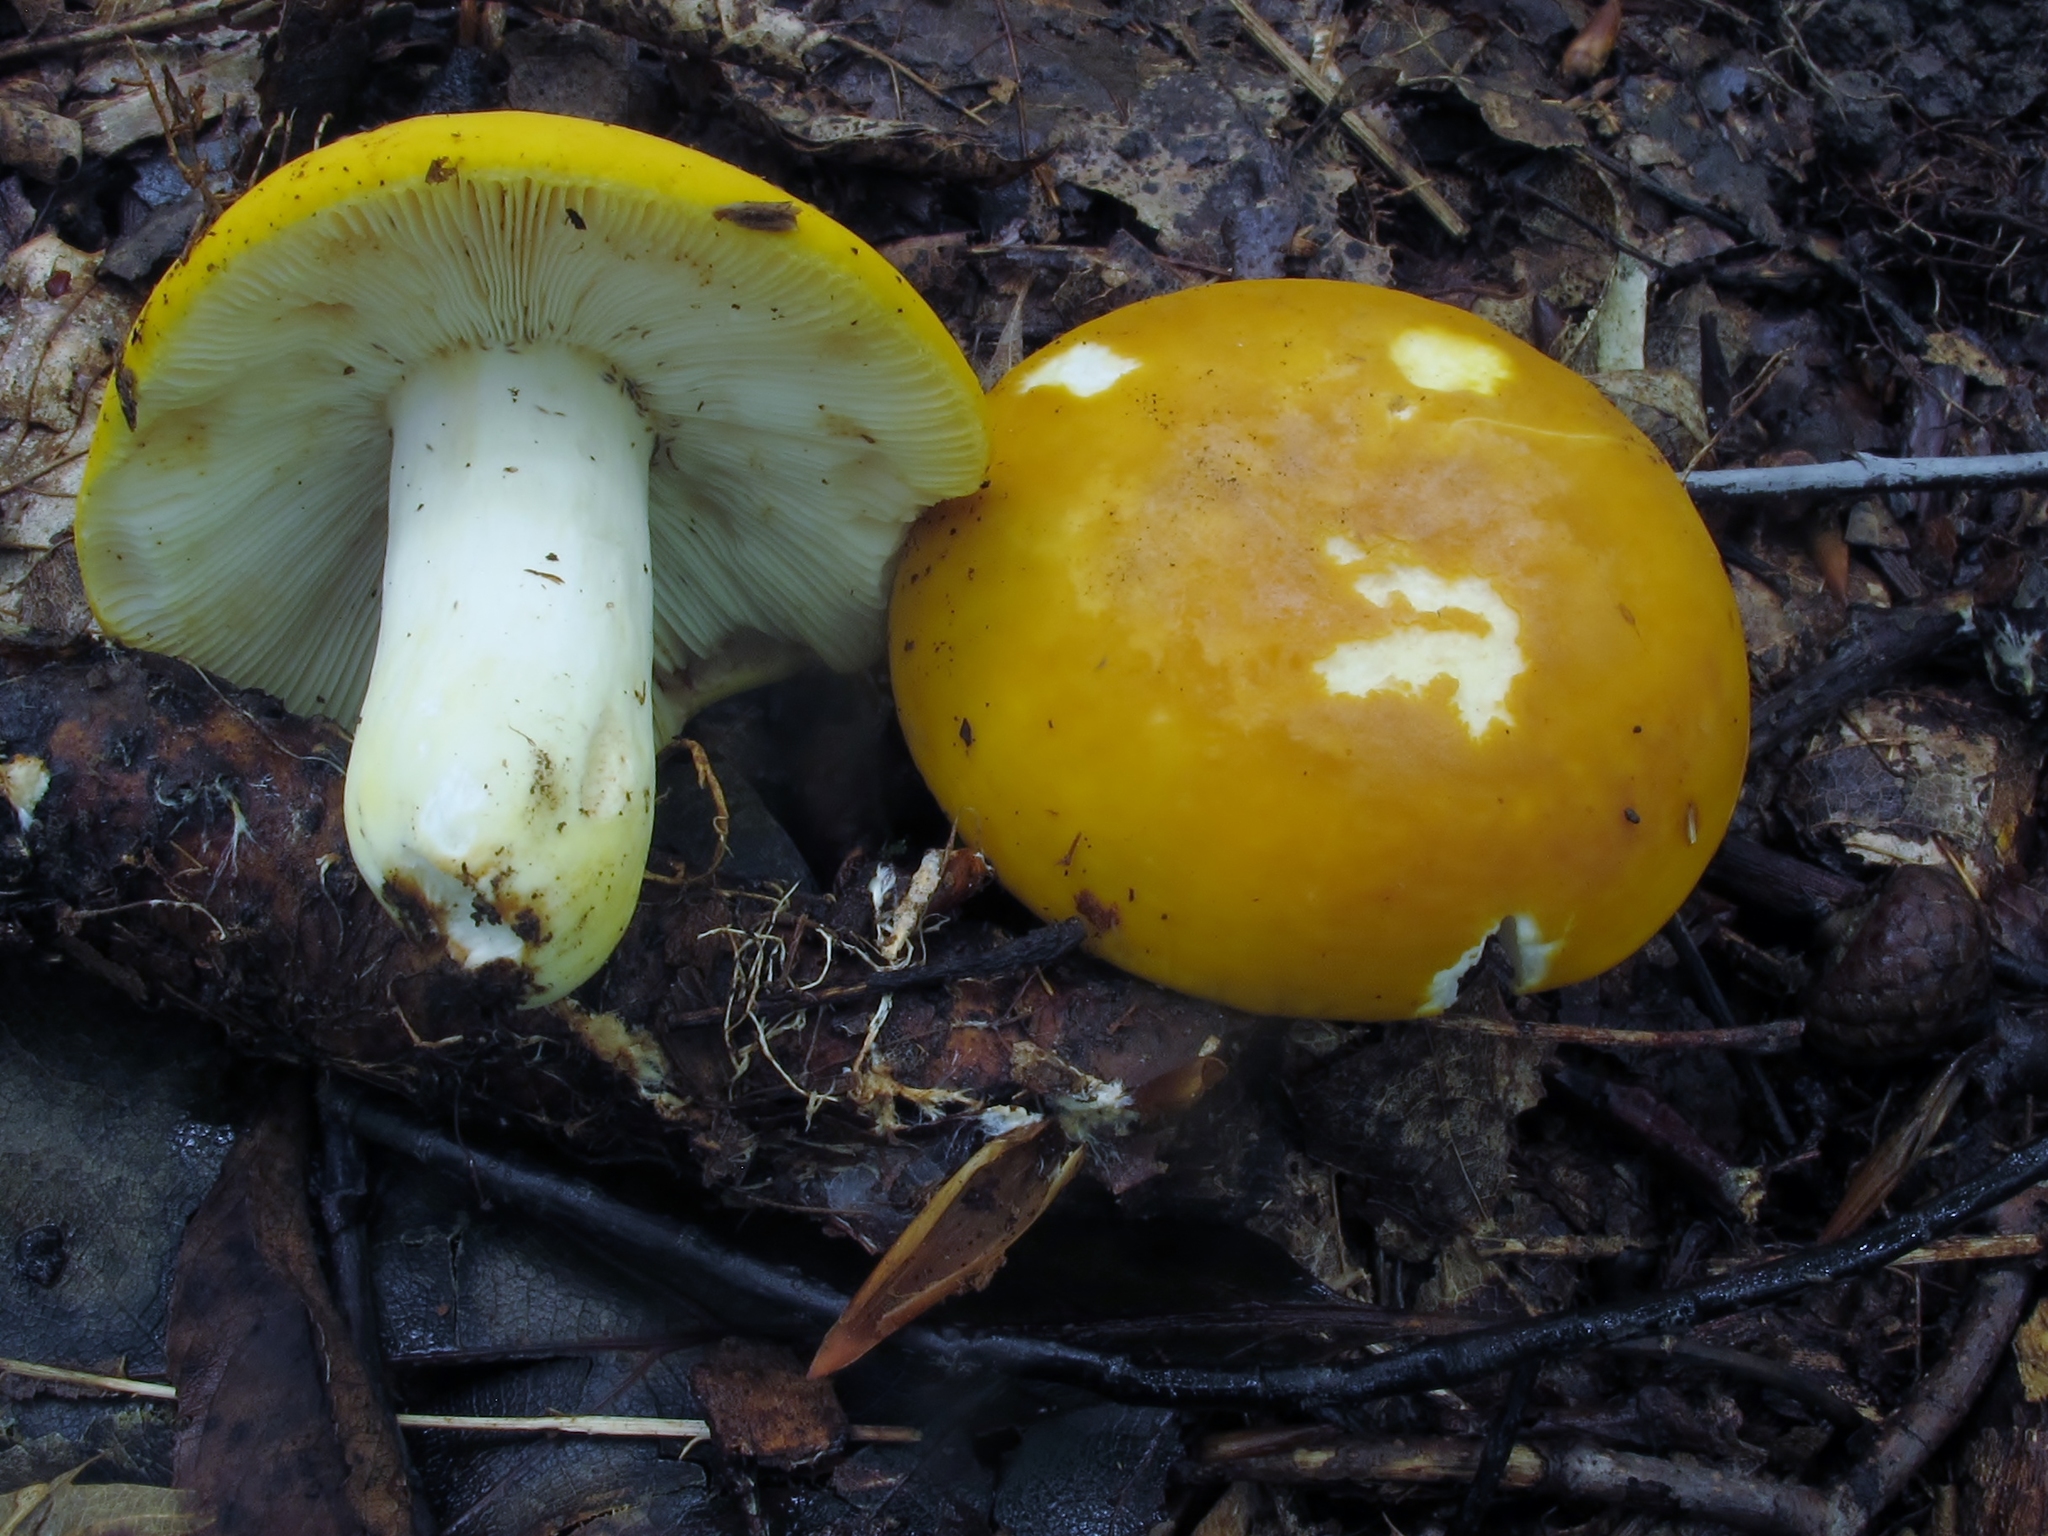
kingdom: Fungi
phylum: Basidiomycota
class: Agaricomycetes
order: Russulales
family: Russulaceae
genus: Russula
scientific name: Russula ochroleucoides
